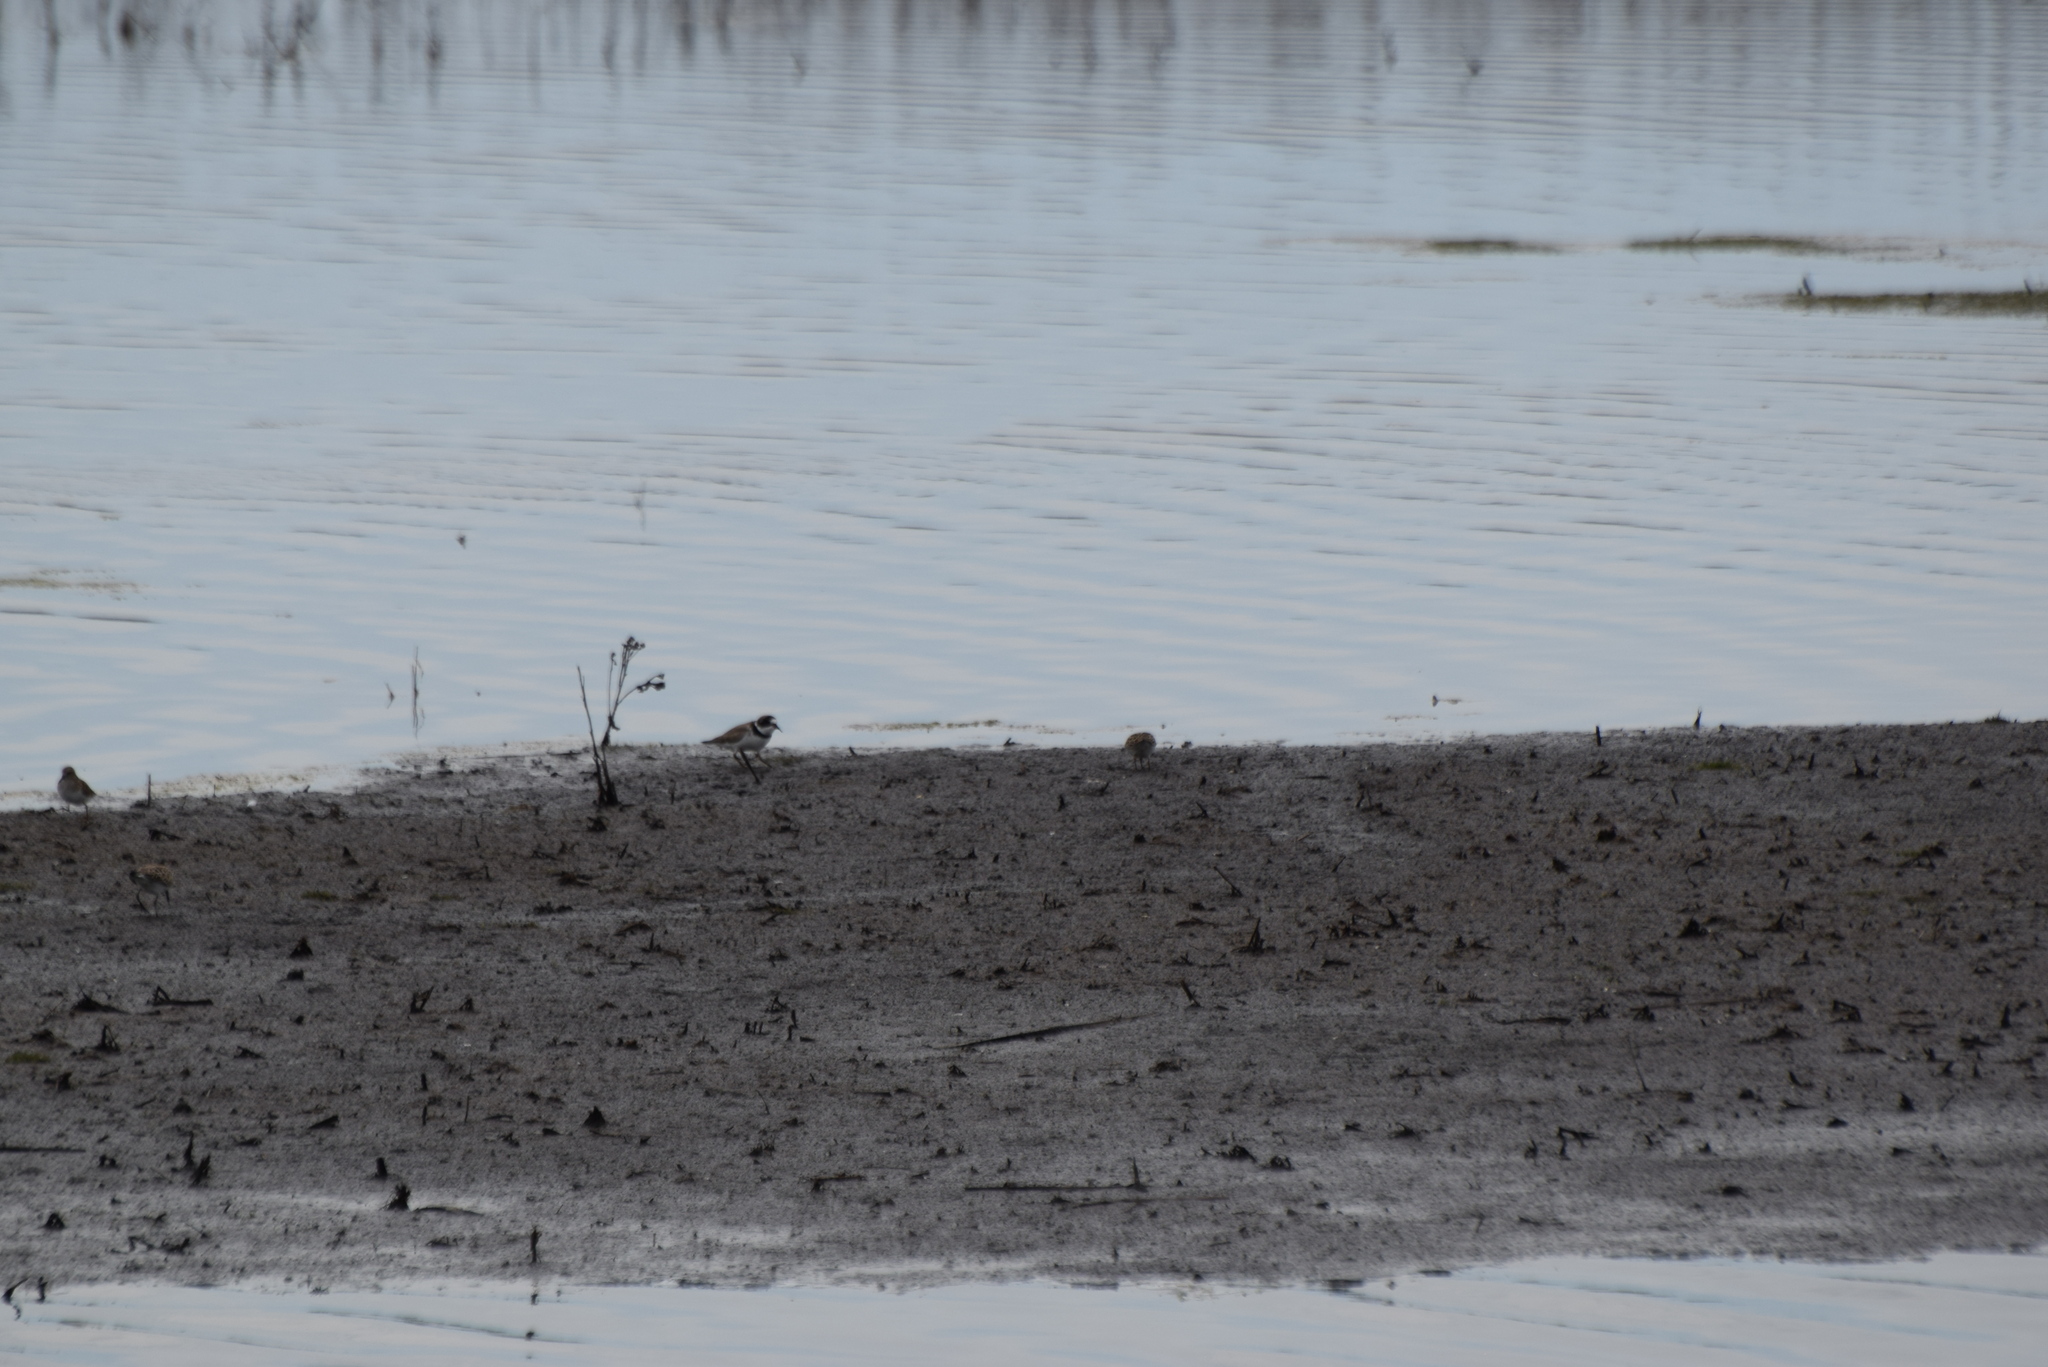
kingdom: Animalia
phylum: Chordata
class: Aves
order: Charadriiformes
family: Charadriidae
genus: Charadrius
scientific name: Charadrius semipalmatus
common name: Semipalmated plover
